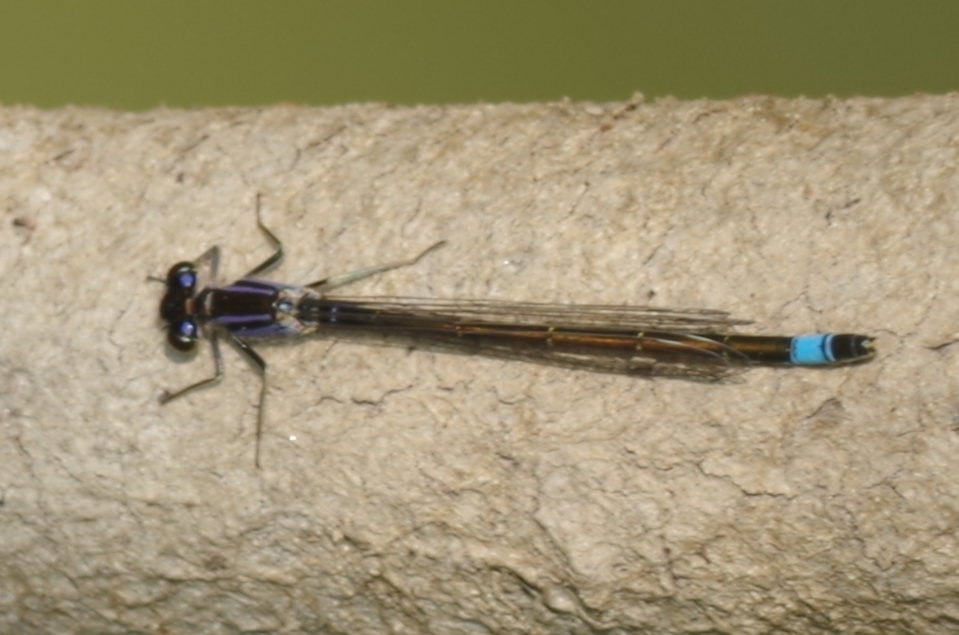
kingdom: Animalia
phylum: Arthropoda
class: Insecta
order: Odonata
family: Coenagrionidae
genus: Ischnura
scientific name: Ischnura elegans
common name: Blue-tailed damselfly
